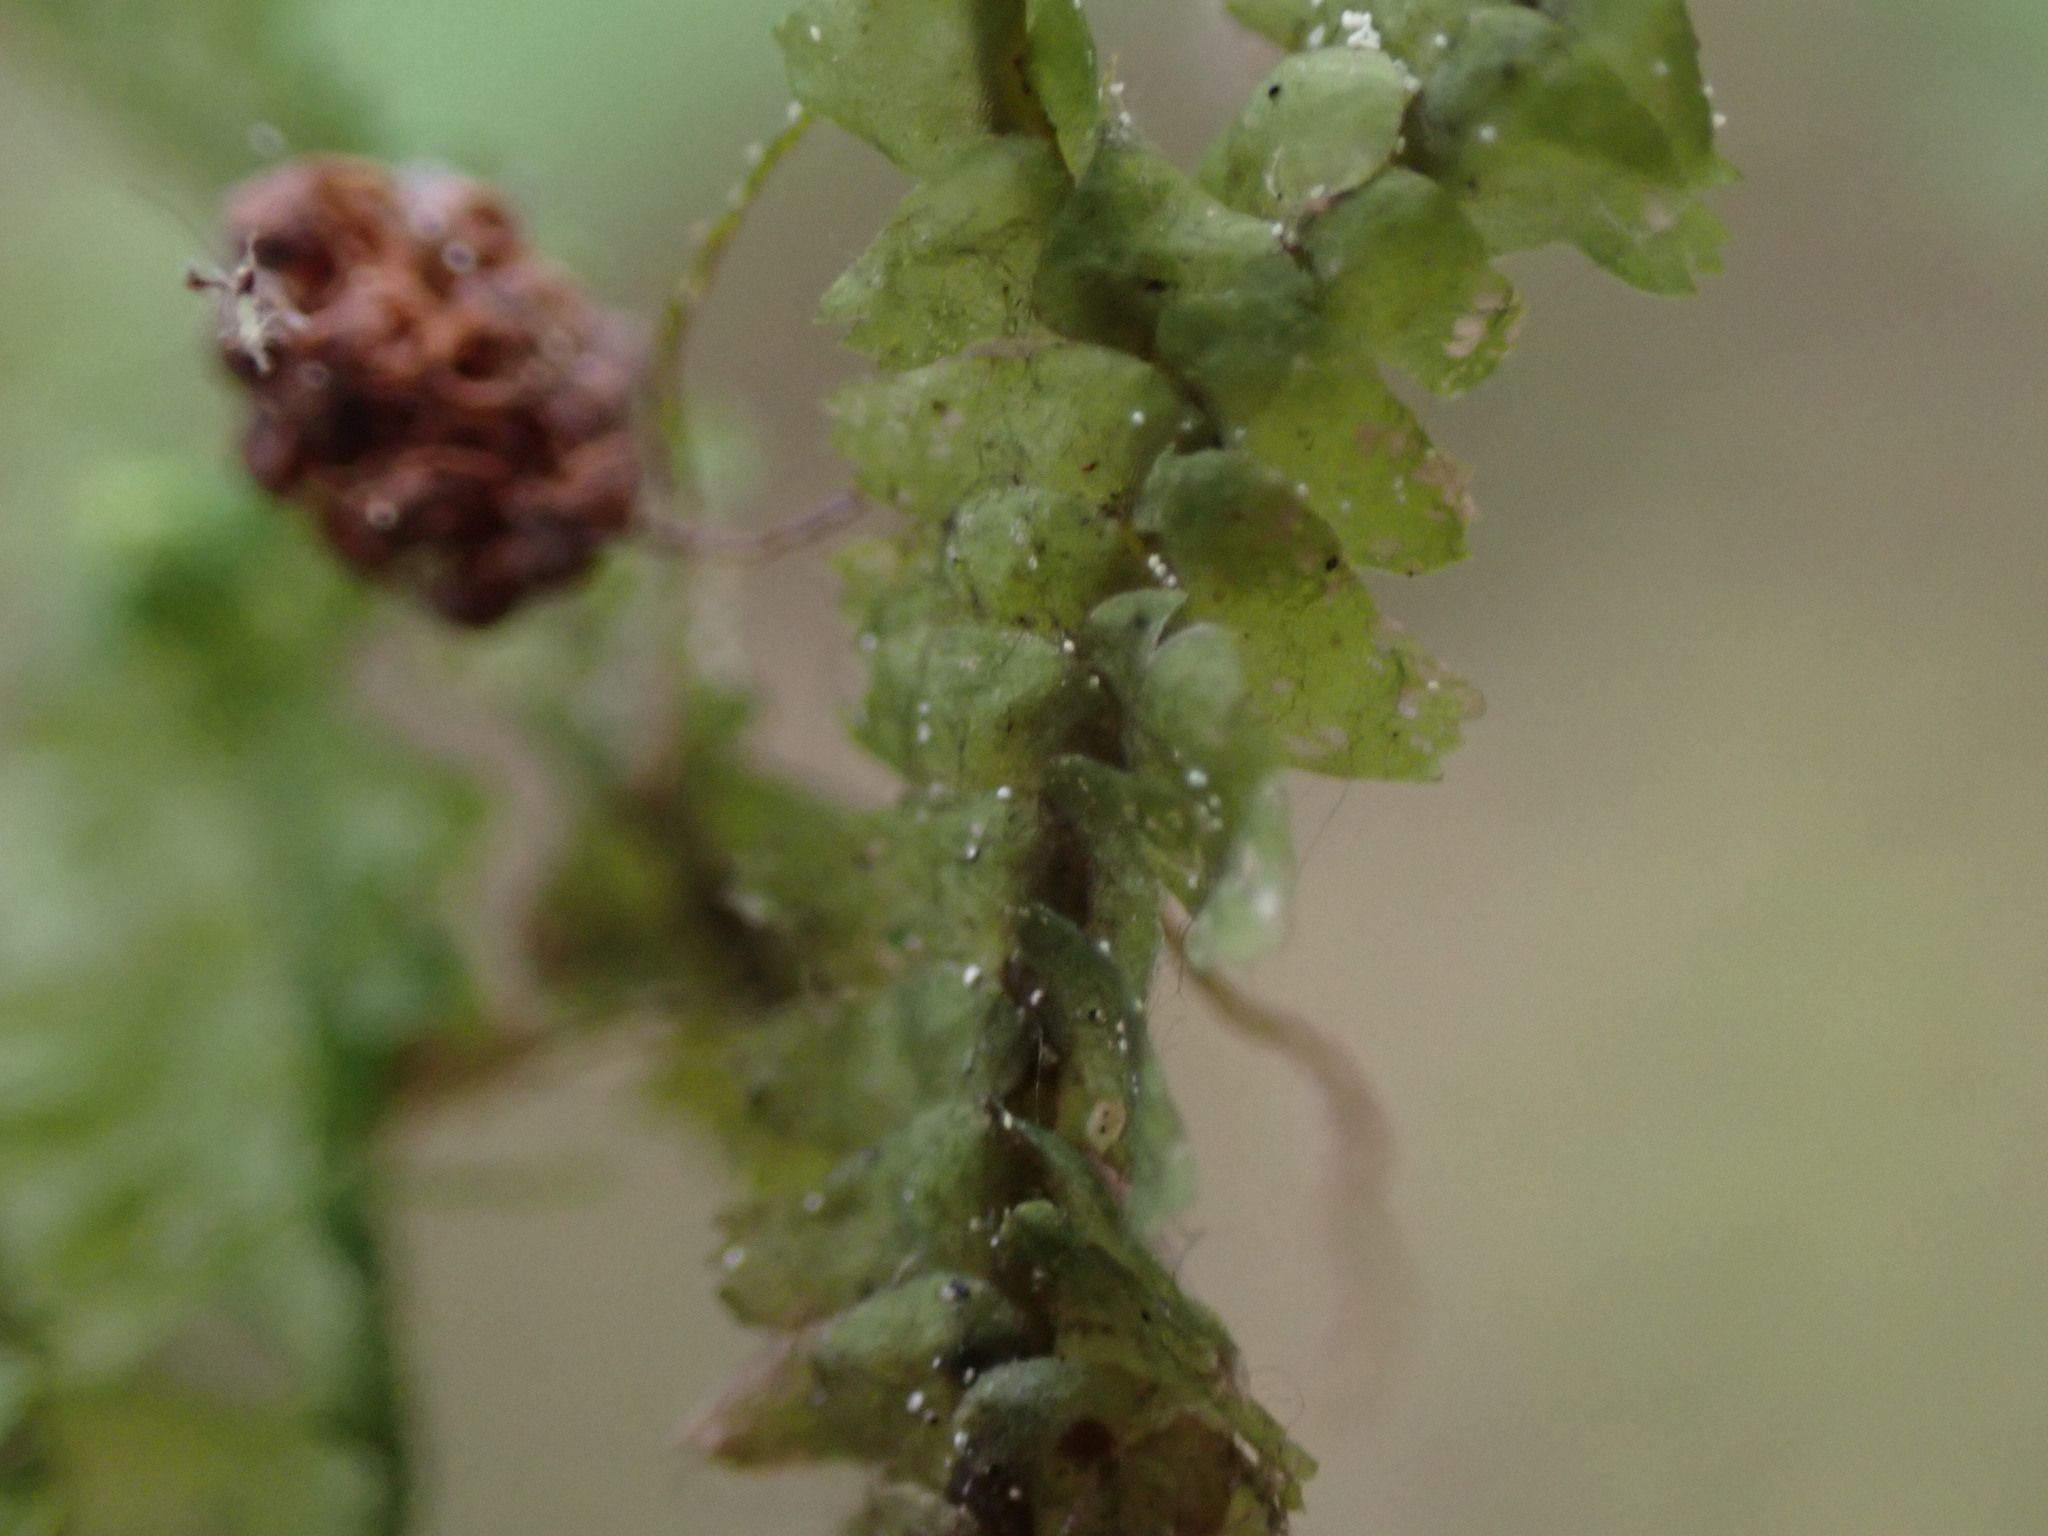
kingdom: Plantae
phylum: Marchantiophyta
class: Jungermanniopsida
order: Jungermanniales
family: Lepidoziaceae
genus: Bazzania
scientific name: Bazzania trilobata
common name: Three-lobed whipwort
